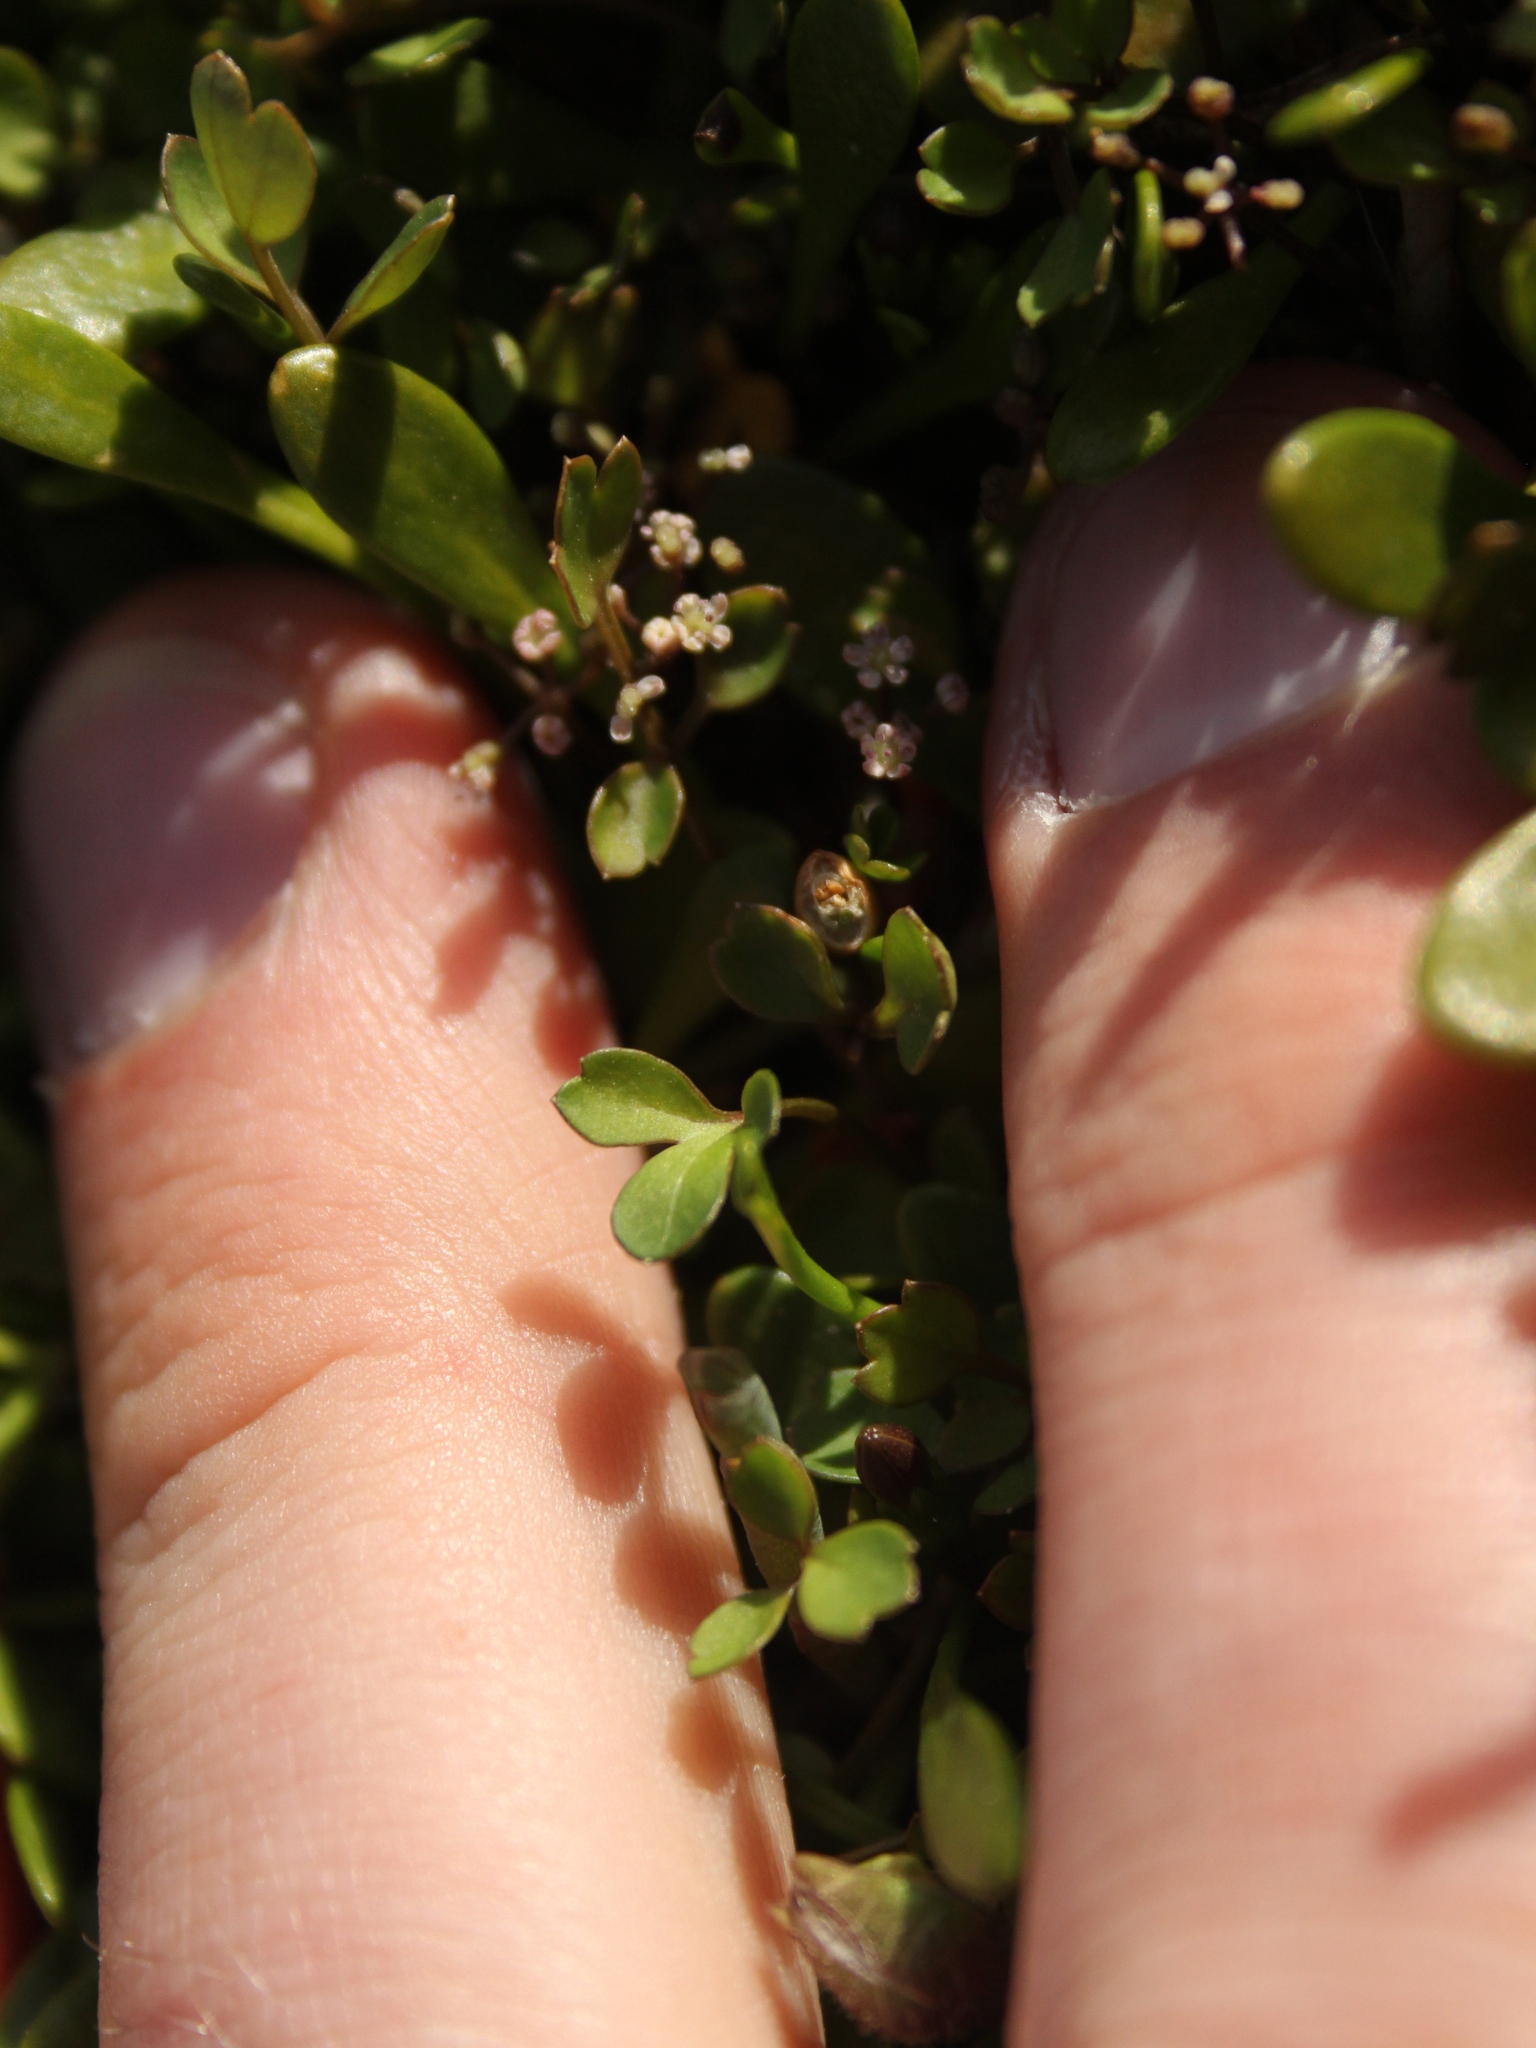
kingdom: Plantae
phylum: Tracheophyta
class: Magnoliopsida
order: Apiales
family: Apiaceae
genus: Apium
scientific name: Apium prostratum
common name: Prostrate marshwort
